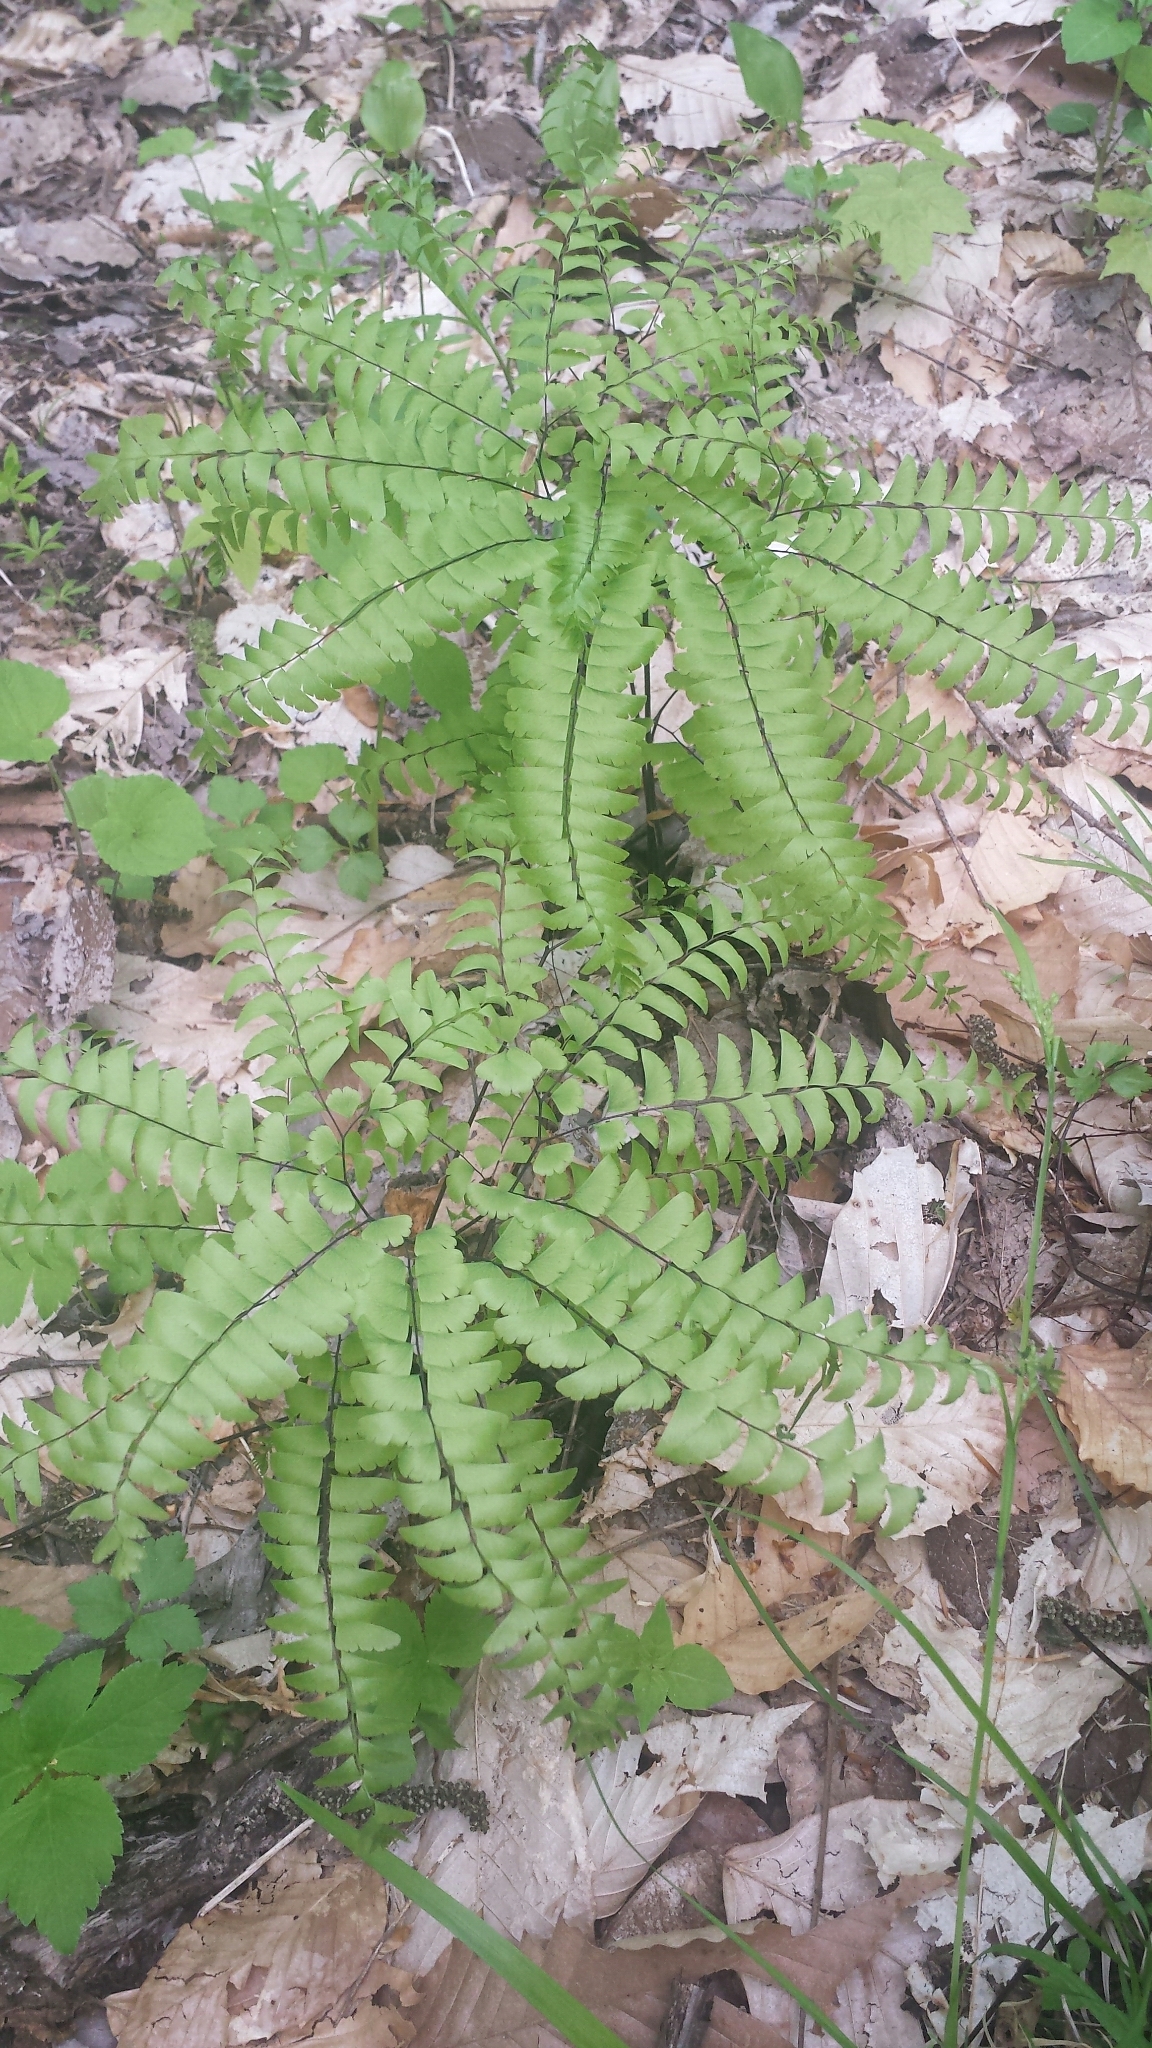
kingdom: Plantae
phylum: Tracheophyta
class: Polypodiopsida
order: Polypodiales
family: Pteridaceae
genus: Adiantum
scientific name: Adiantum pedatum
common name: Five-finger fern
